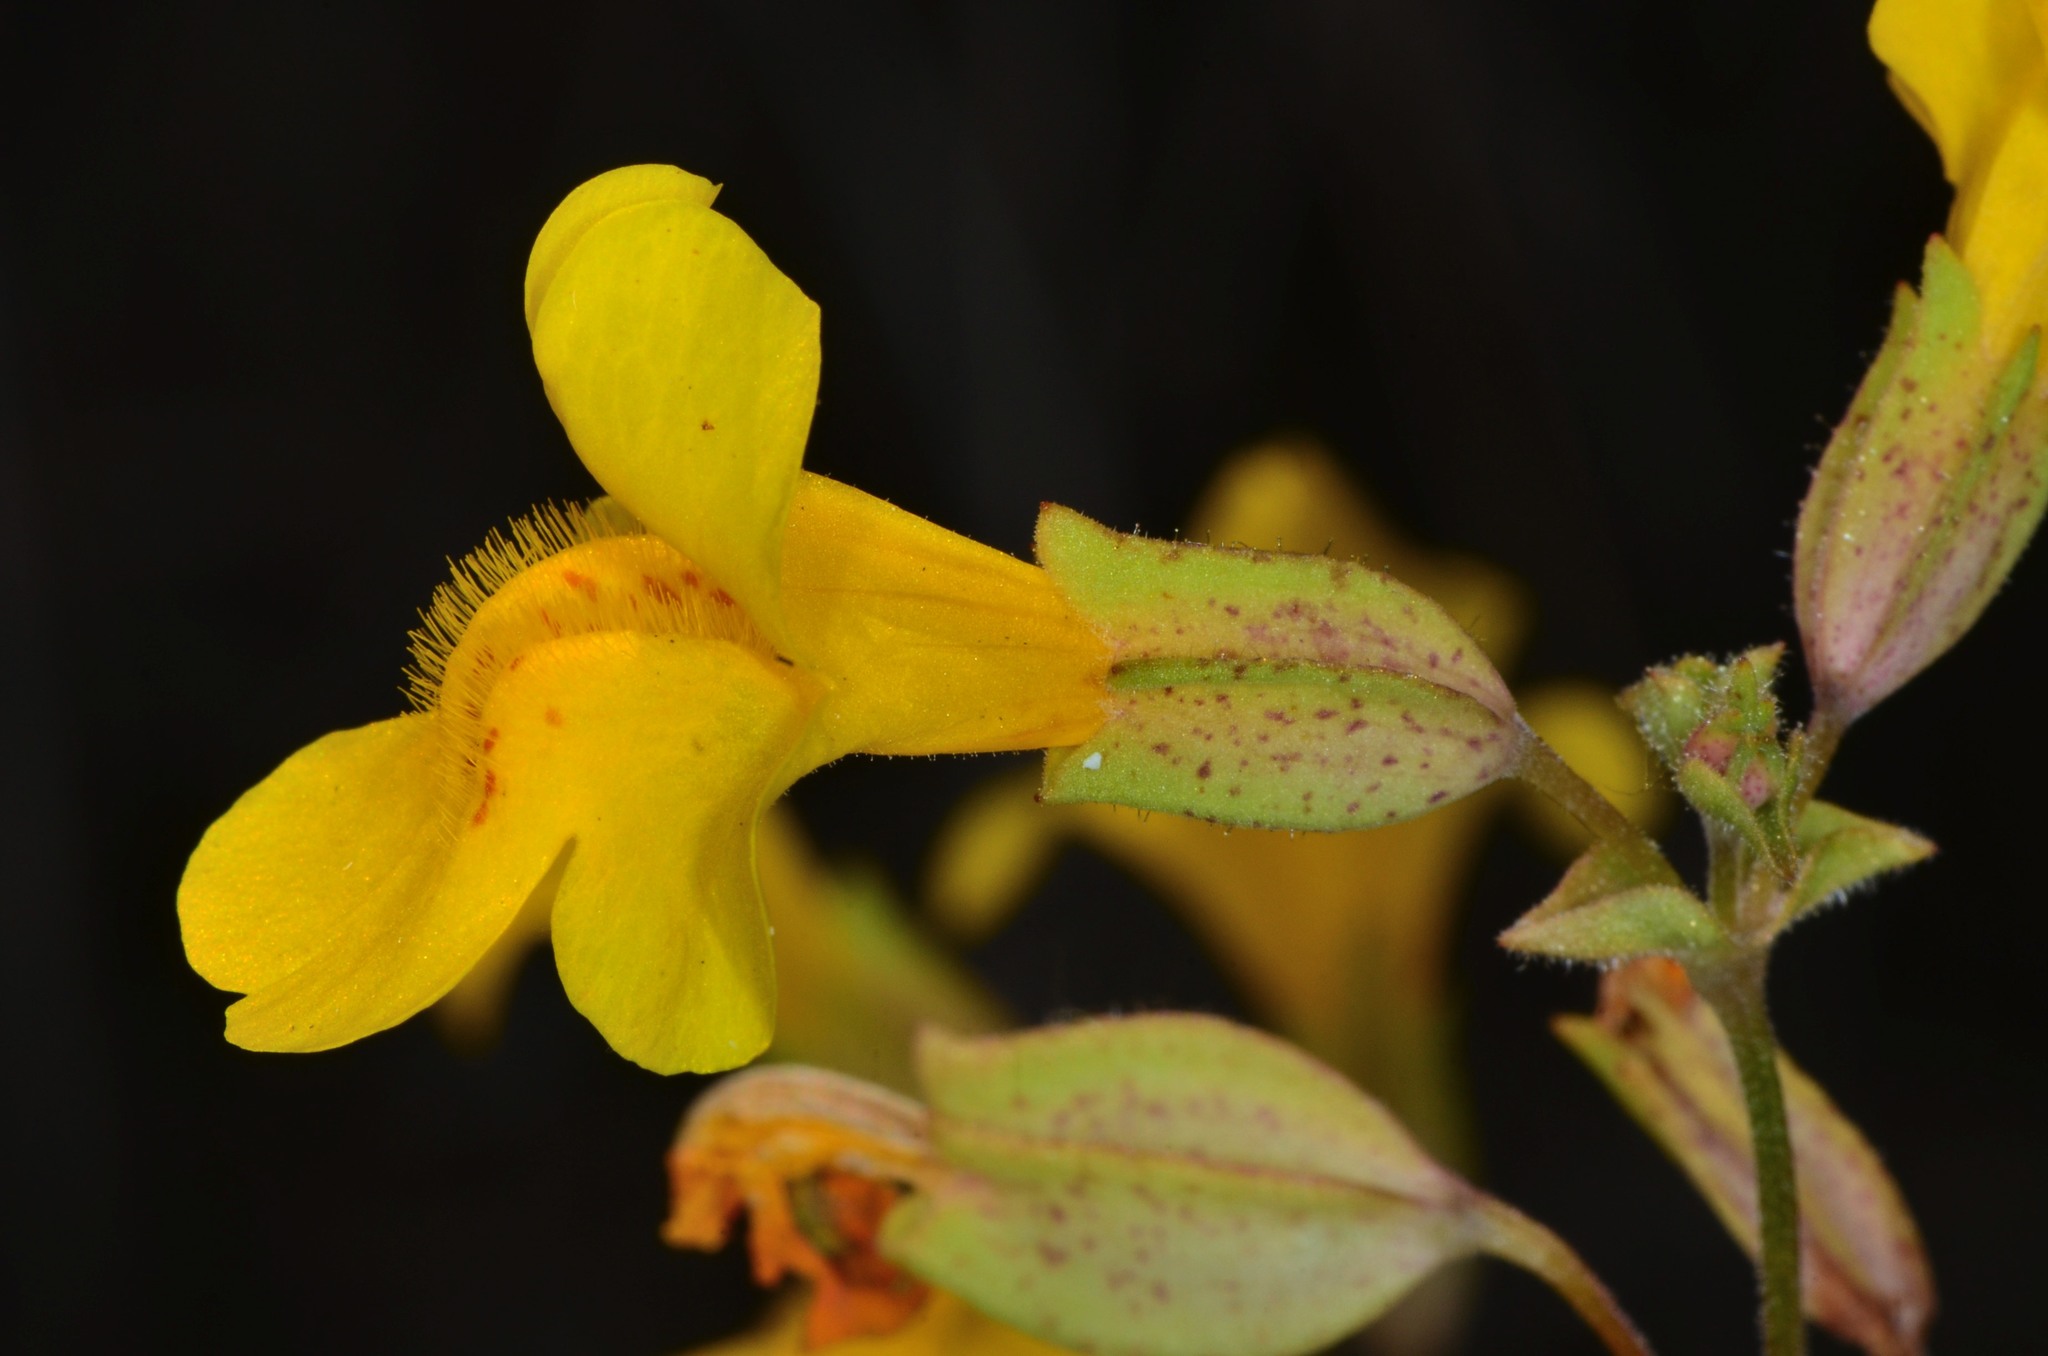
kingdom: Plantae
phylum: Tracheophyta
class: Magnoliopsida
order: Lamiales
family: Phrymaceae
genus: Erythranthe
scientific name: Erythranthe guttata
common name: Monkeyflower
